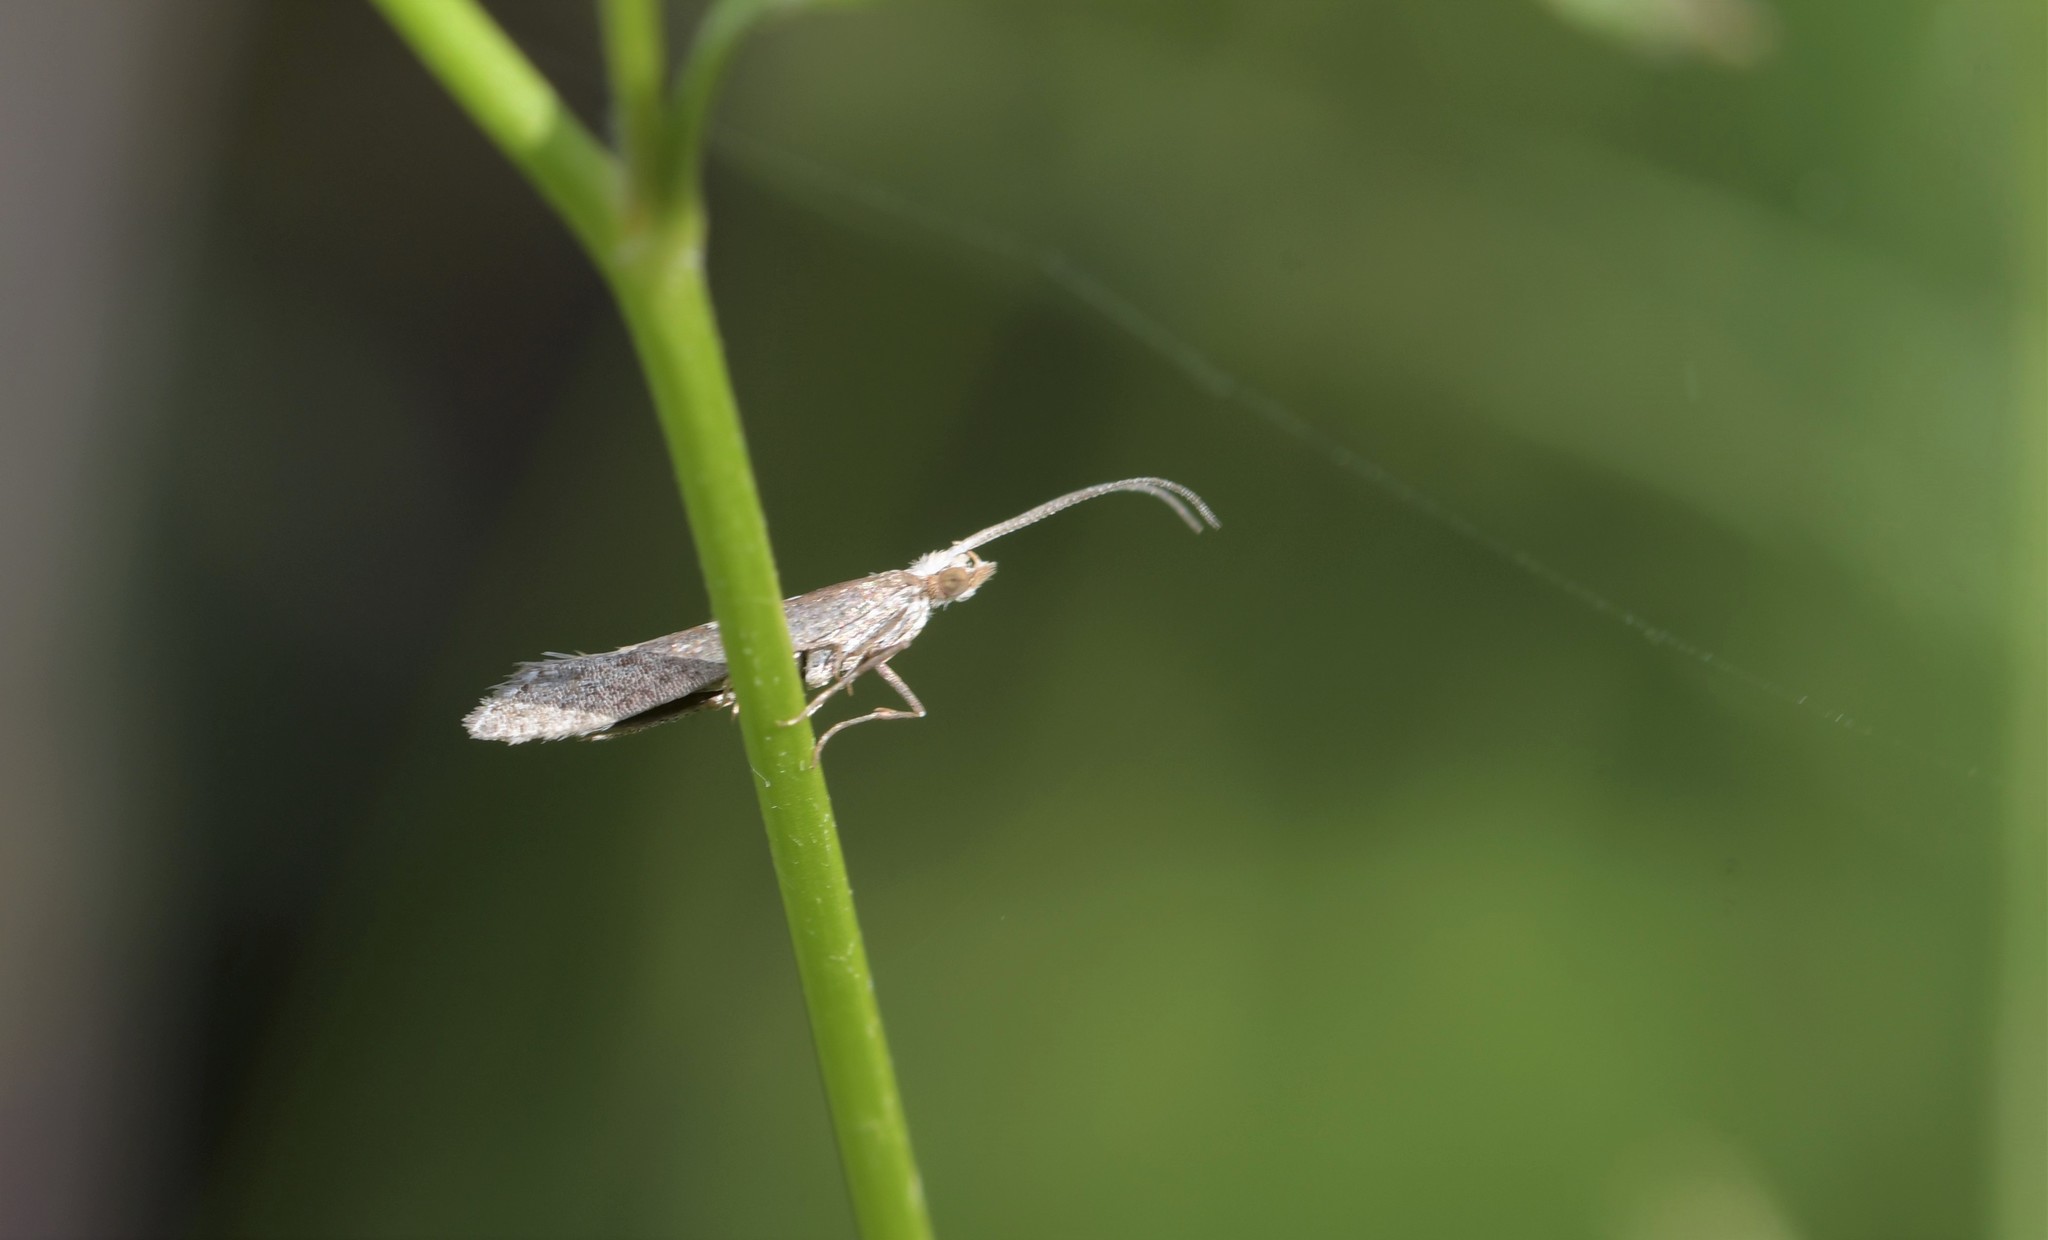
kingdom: Animalia
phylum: Arthropoda
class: Insecta
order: Lepidoptera
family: Plutellidae
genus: Plutella
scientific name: Plutella xylostella
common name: Diamond-back moth
